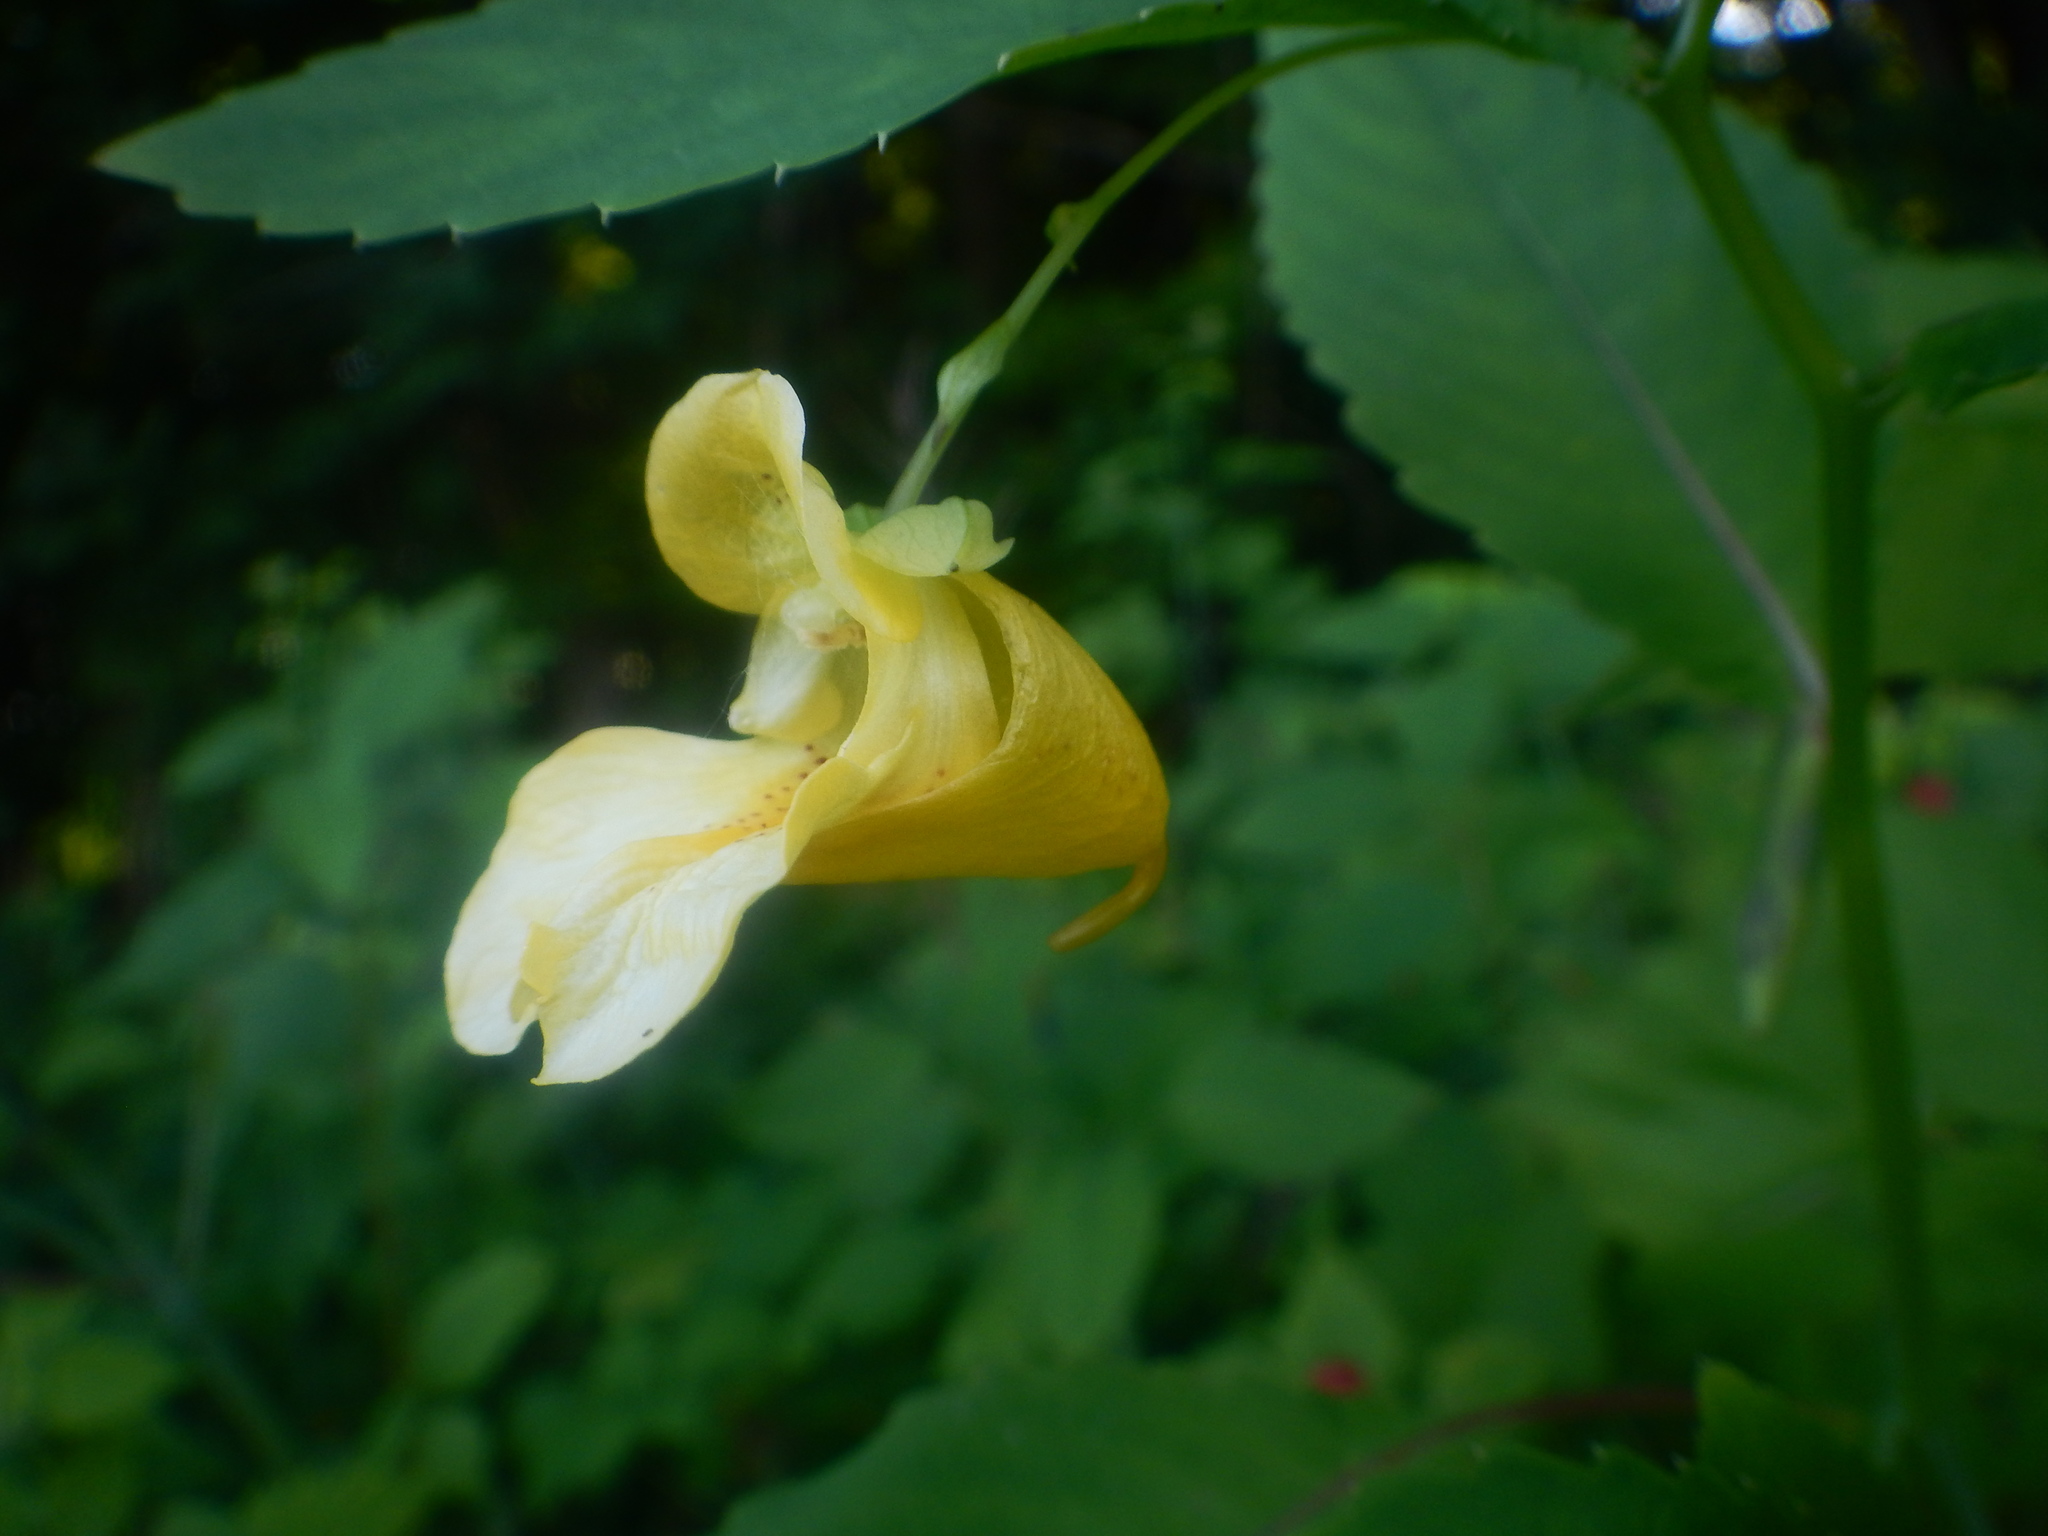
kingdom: Plantae
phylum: Tracheophyta
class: Magnoliopsida
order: Ericales
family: Balsaminaceae
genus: Impatiens
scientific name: Impatiens pallida
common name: Pale snapweed
